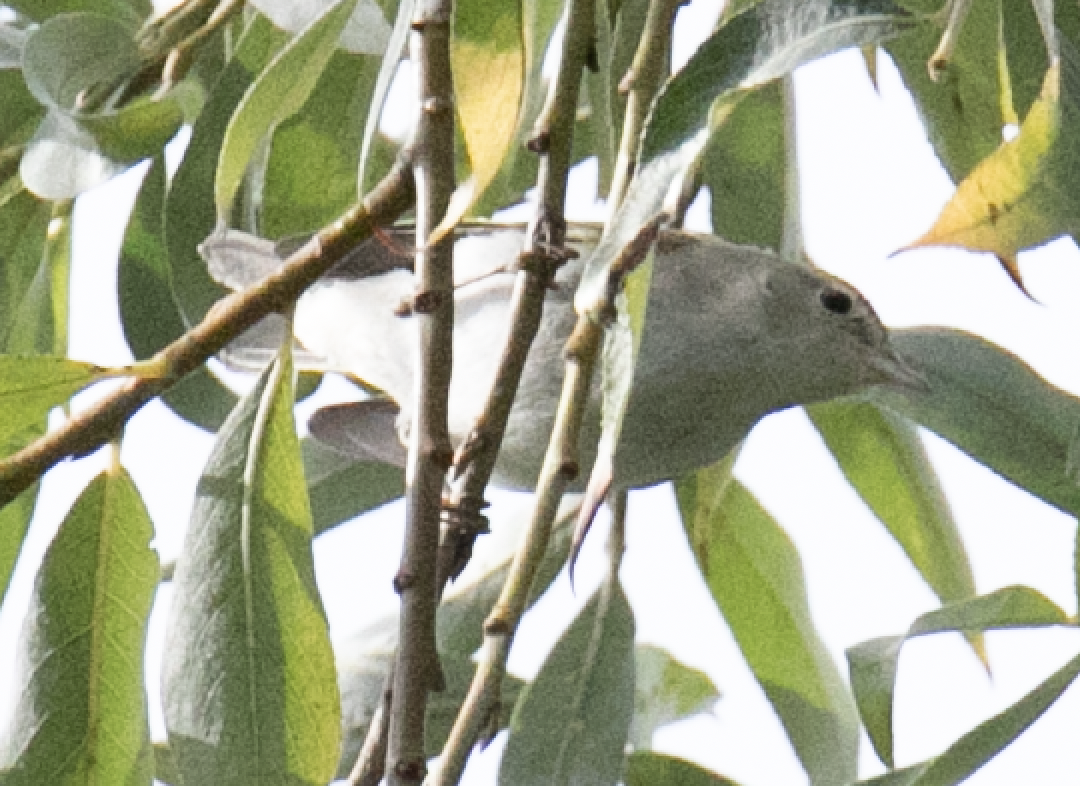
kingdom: Animalia
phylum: Chordata
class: Aves
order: Passeriformes
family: Sylviidae
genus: Sylvia
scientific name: Sylvia borin
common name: Garden warbler
